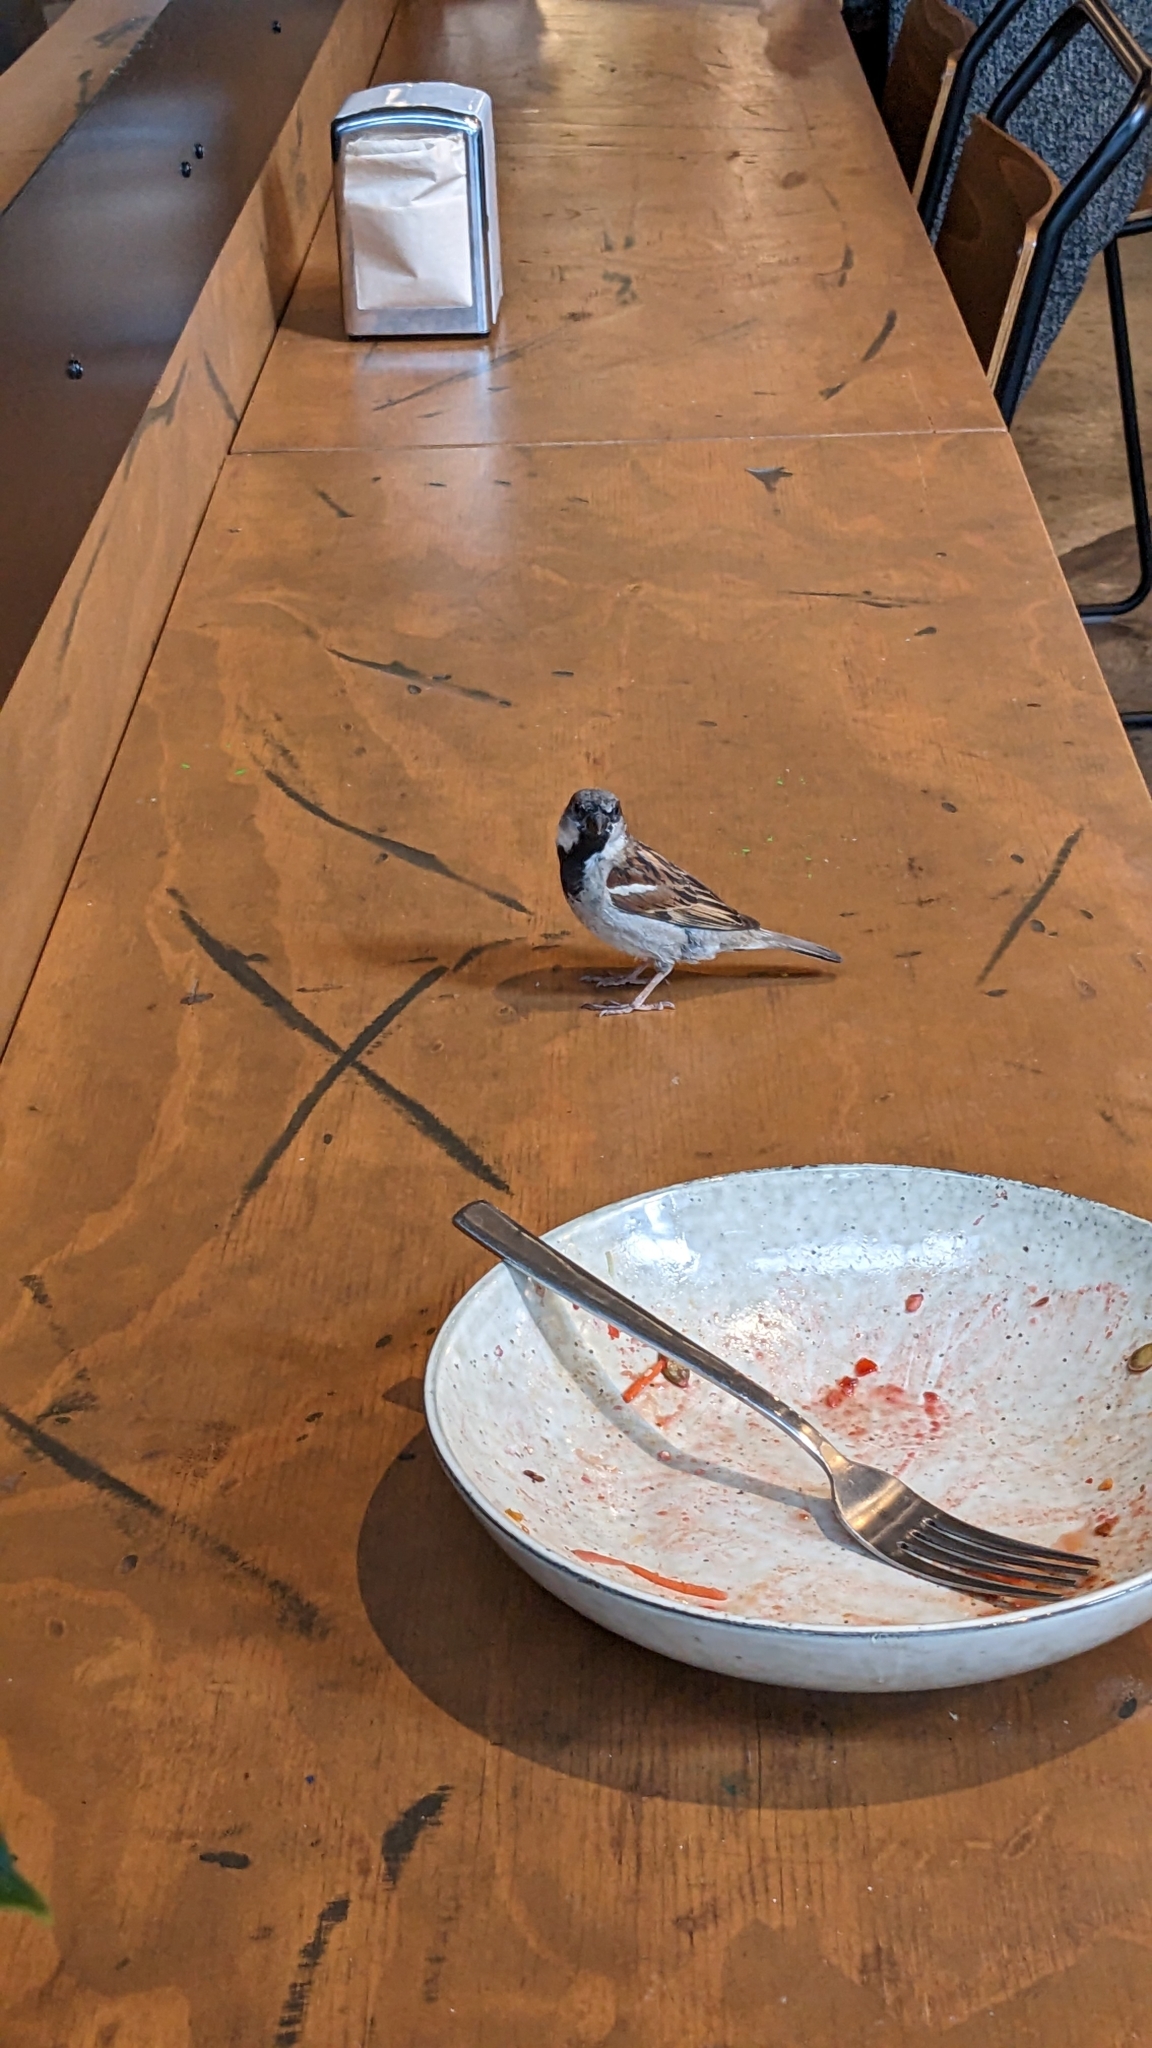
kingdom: Animalia
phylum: Chordata
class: Aves
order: Passeriformes
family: Passeridae
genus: Passer
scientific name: Passer domesticus
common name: House sparrow
